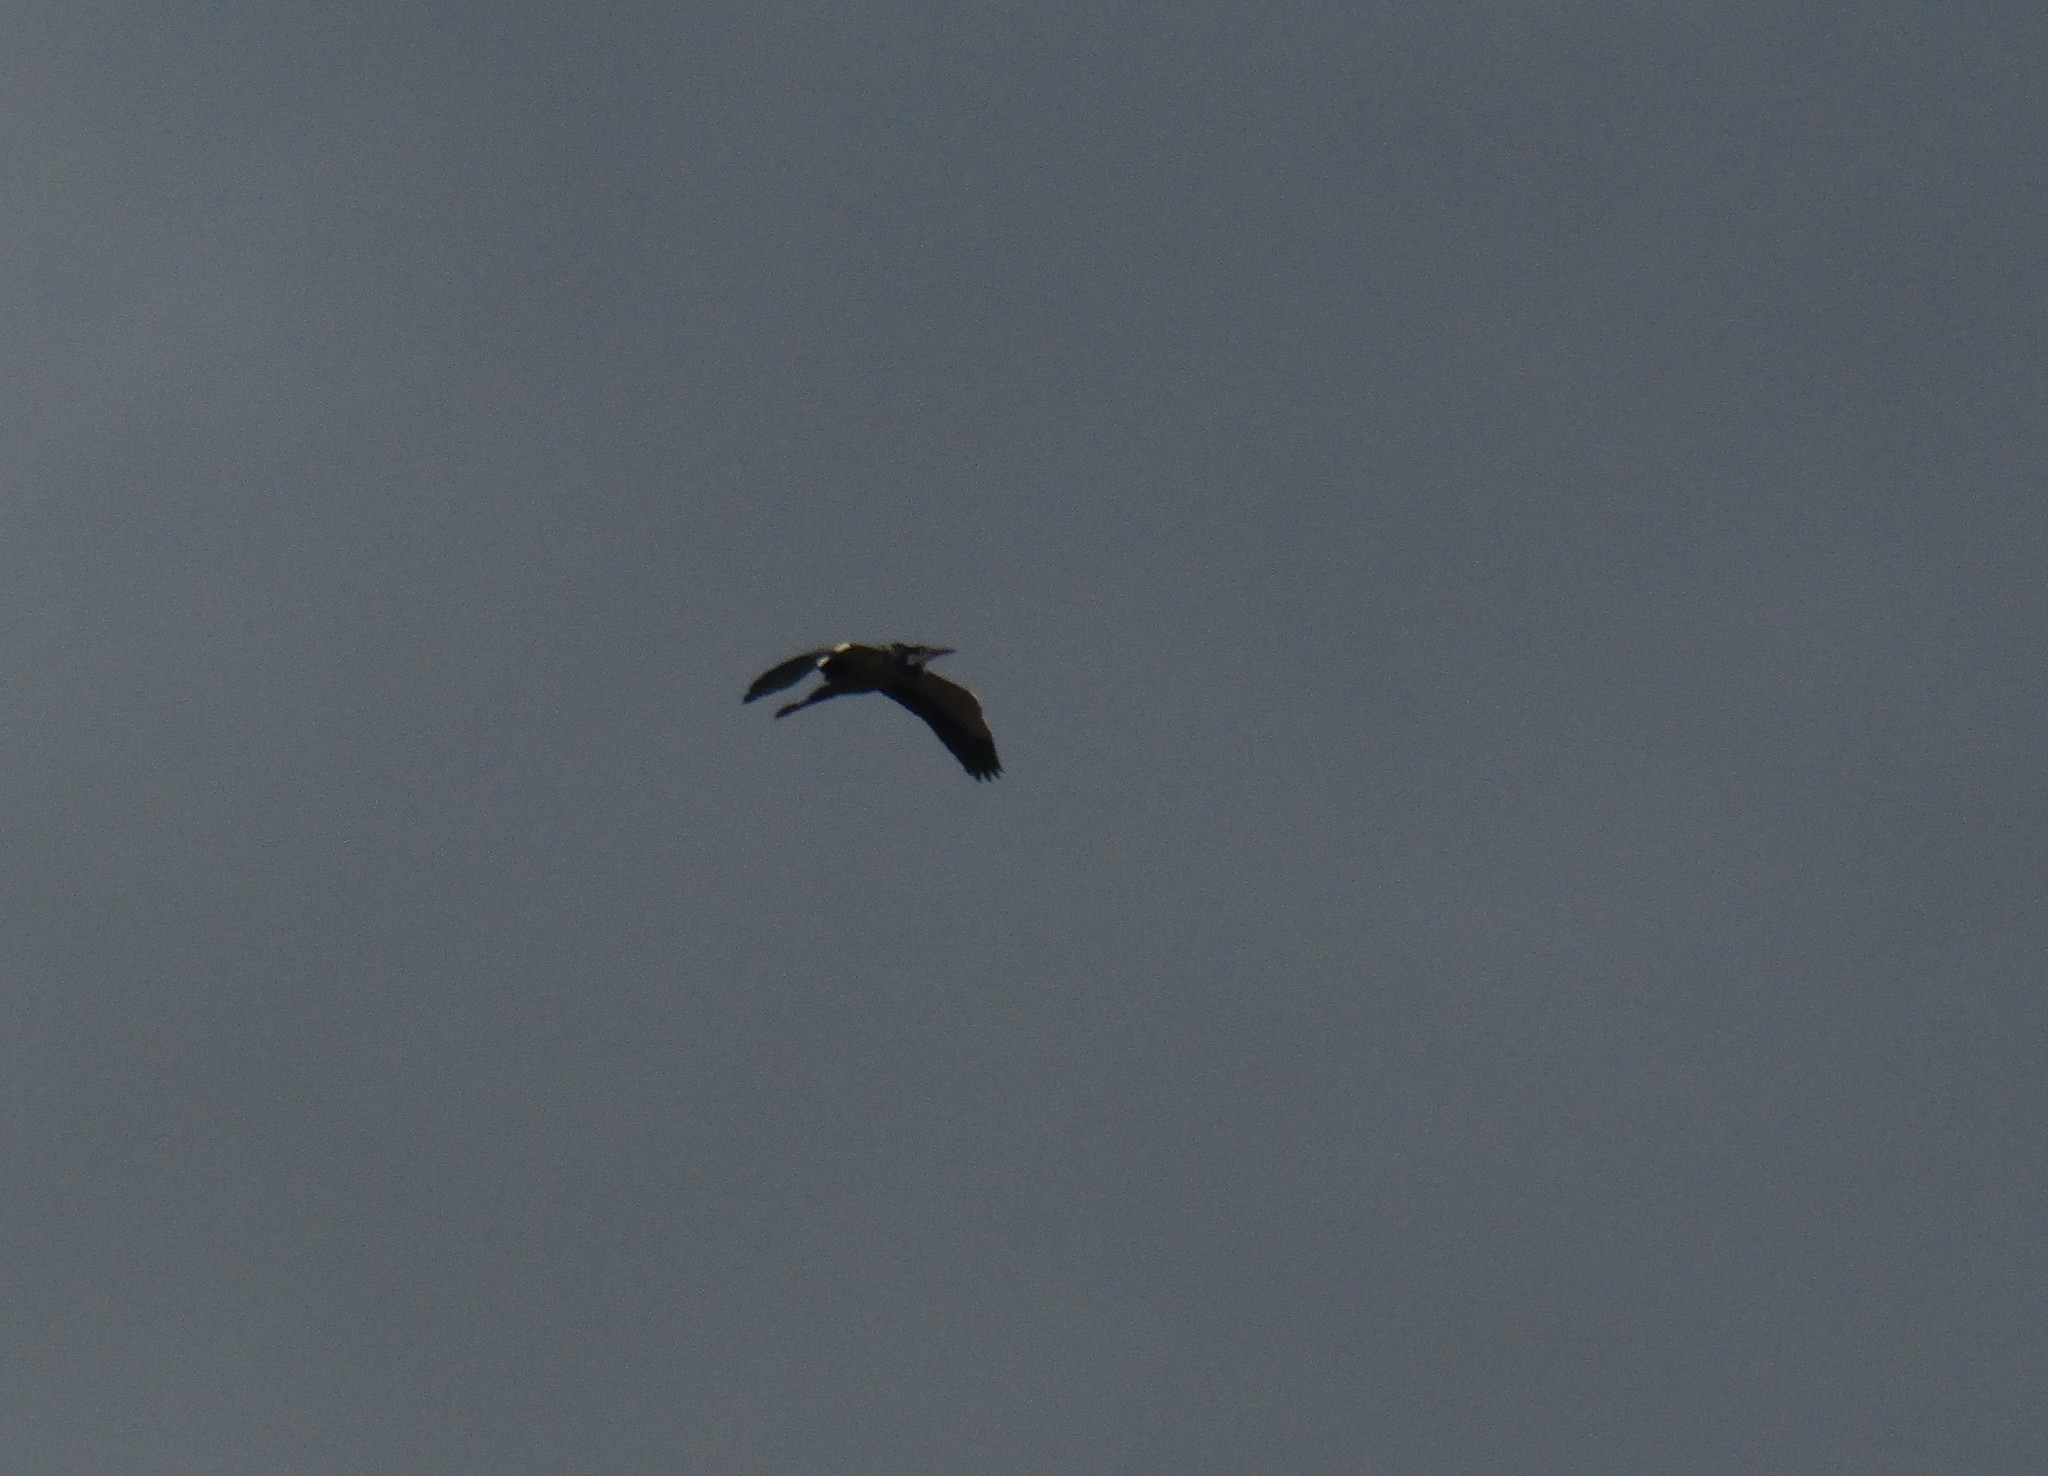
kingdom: Animalia
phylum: Chordata
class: Aves
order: Pelecaniformes
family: Ardeidae
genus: Ardea
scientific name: Ardea melanocephala
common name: Black-headed heron
